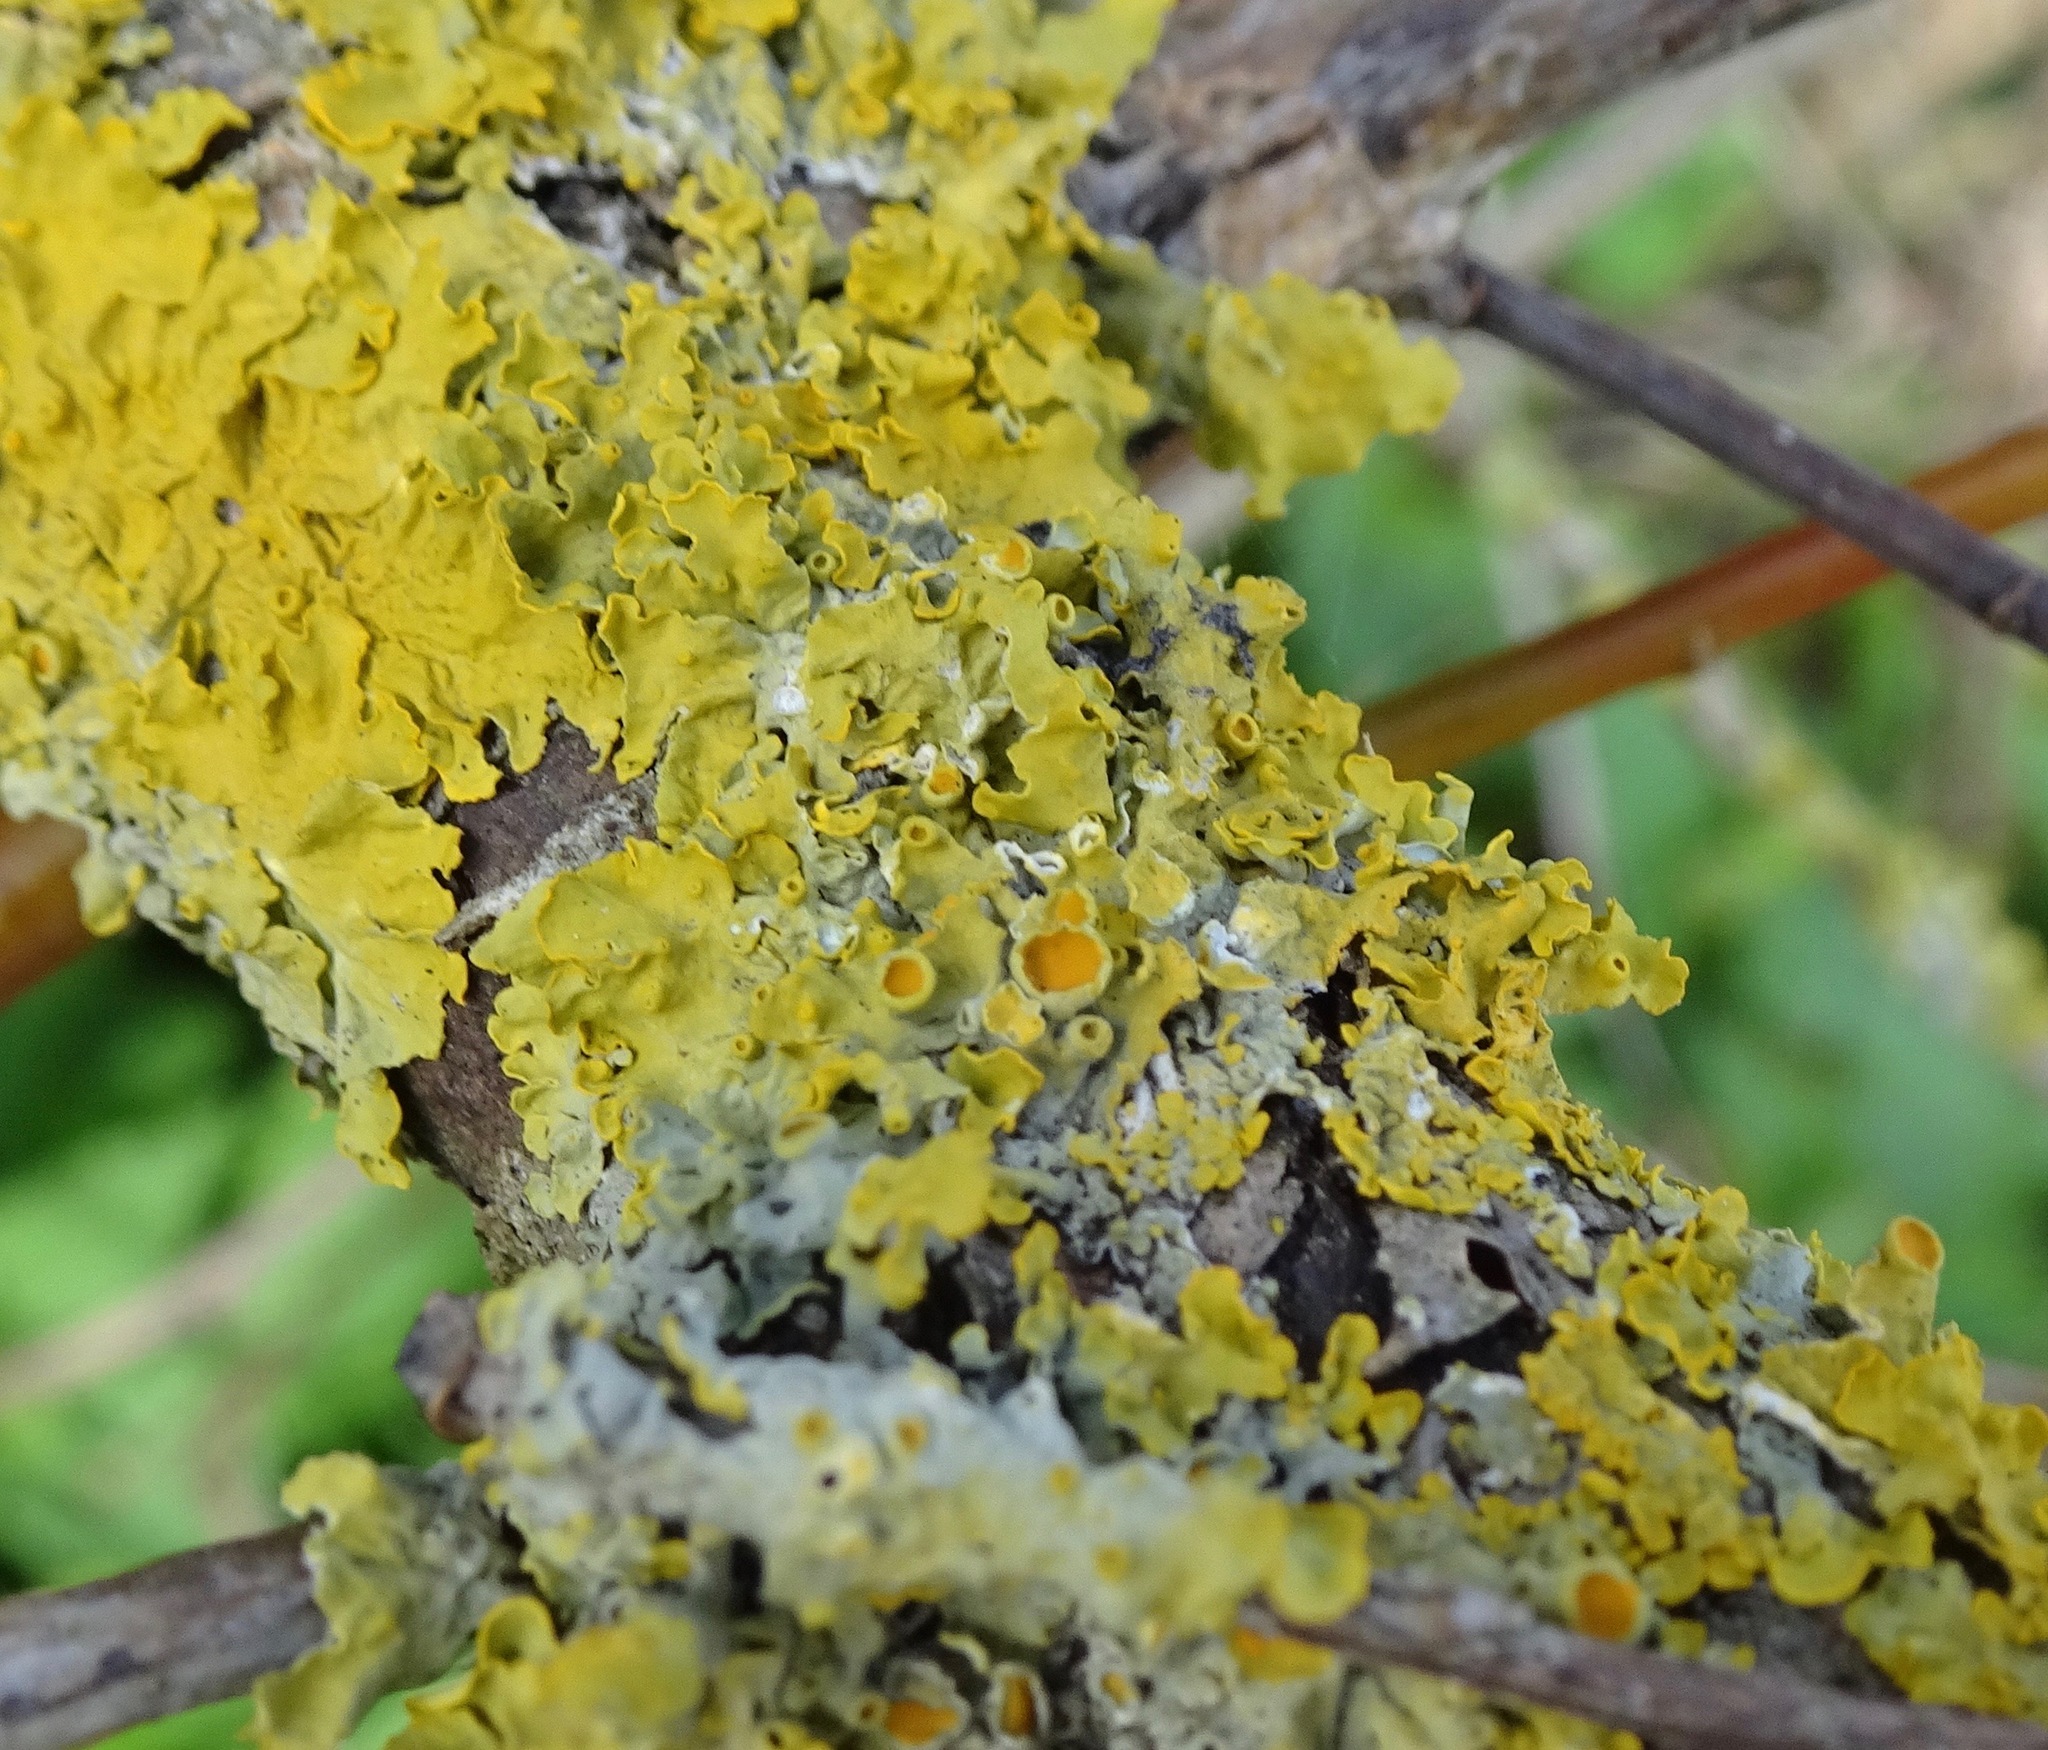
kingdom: Fungi
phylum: Ascomycota
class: Lecanoromycetes
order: Teloschistales
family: Teloschistaceae
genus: Xanthoria
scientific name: Xanthoria parietina
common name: Common orange lichen
